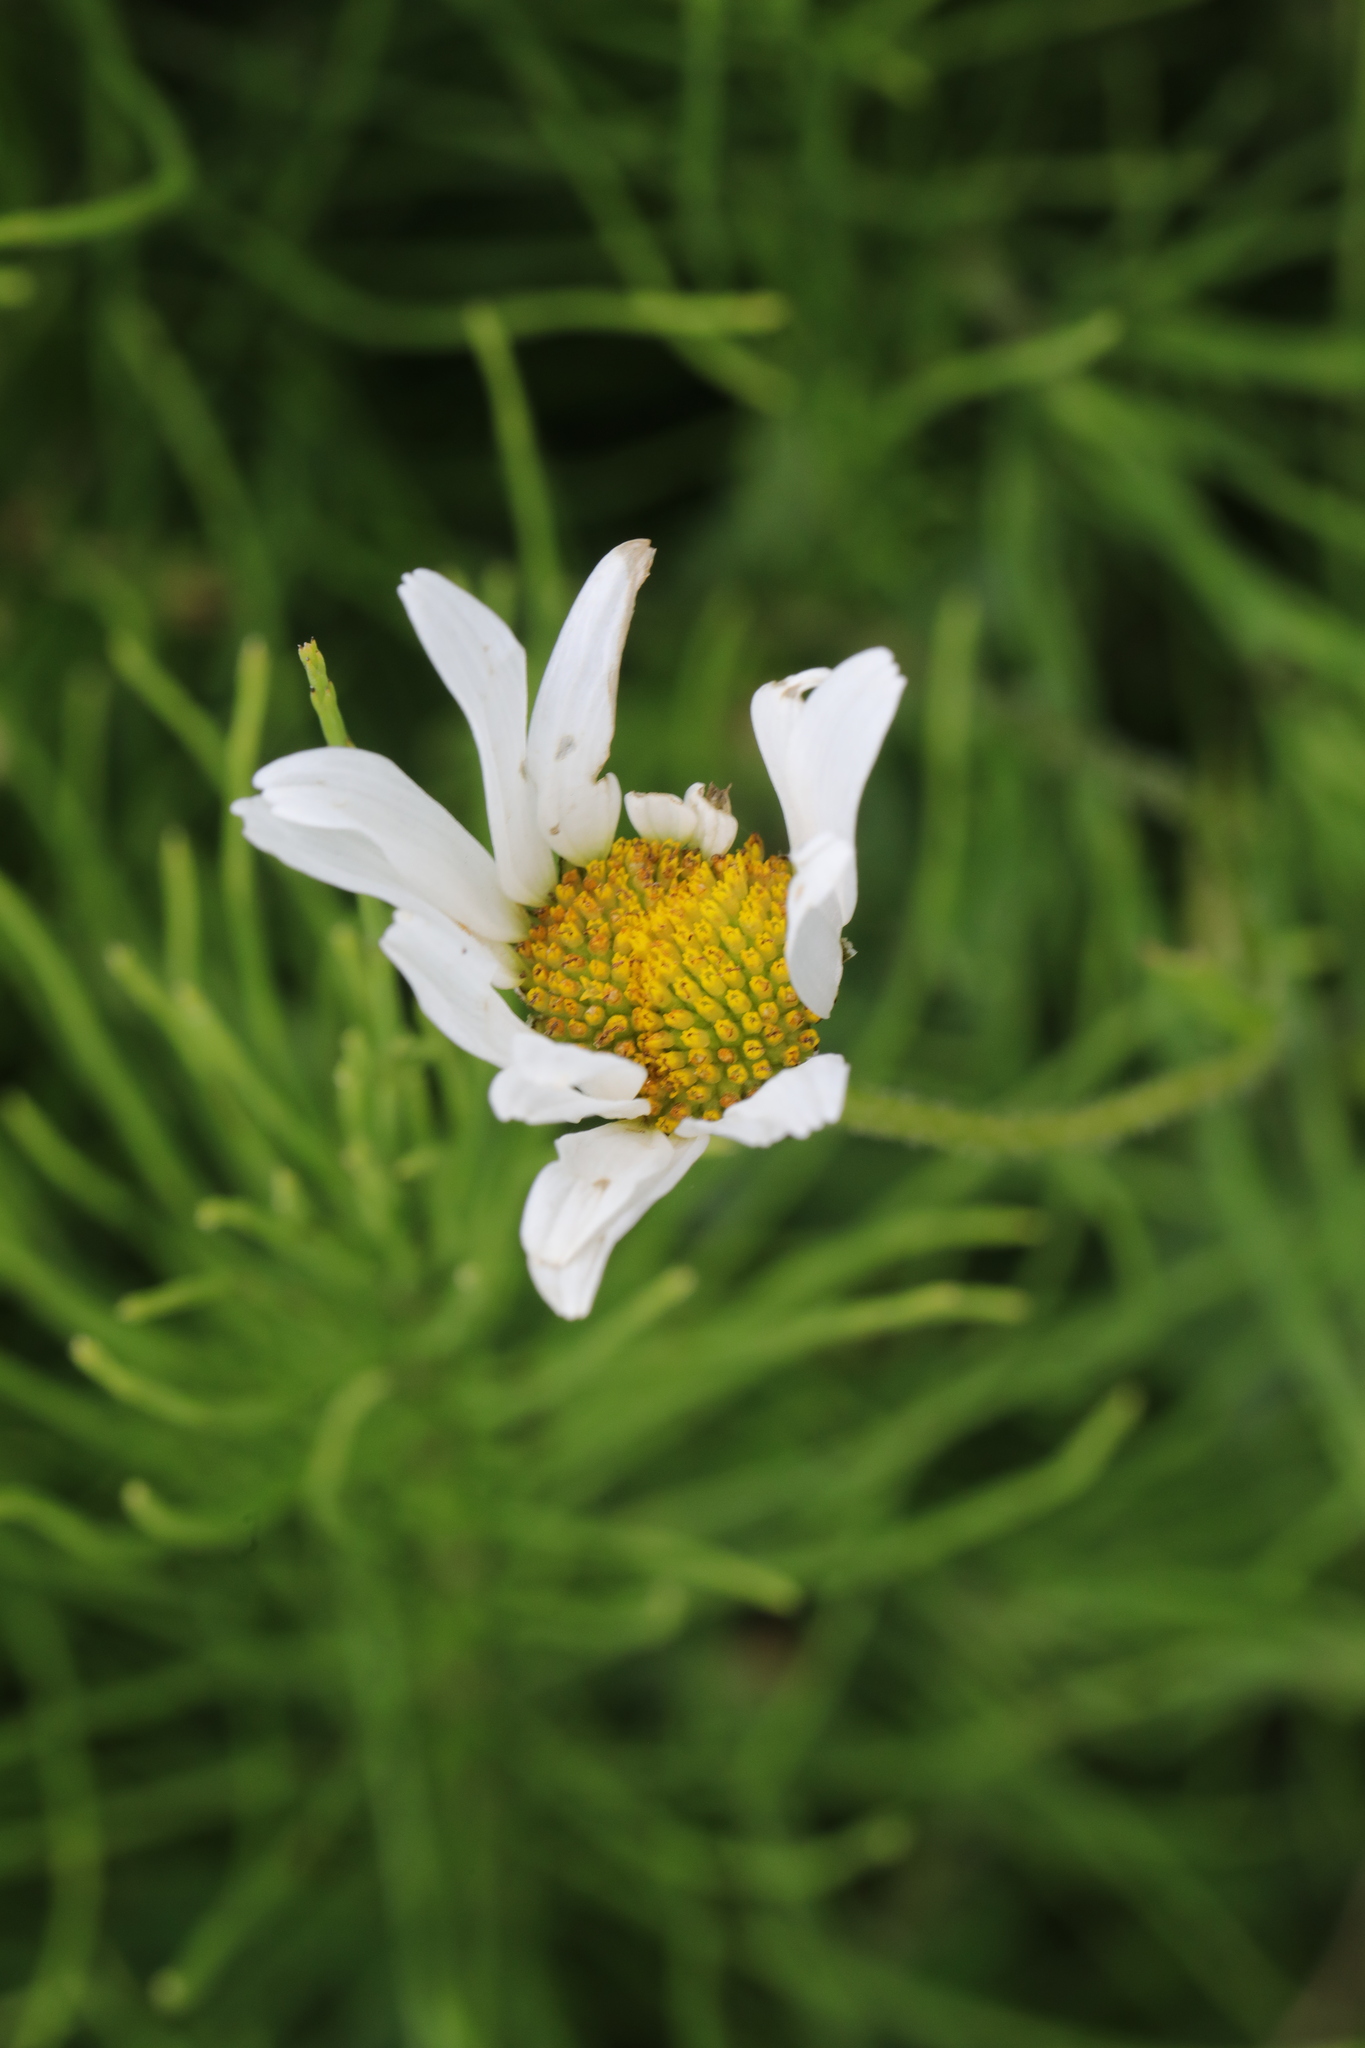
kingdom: Plantae
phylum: Tracheophyta
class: Magnoliopsida
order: Asterales
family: Asteraceae
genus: Leucanthemum
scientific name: Leucanthemum vulgare
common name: Oxeye daisy
